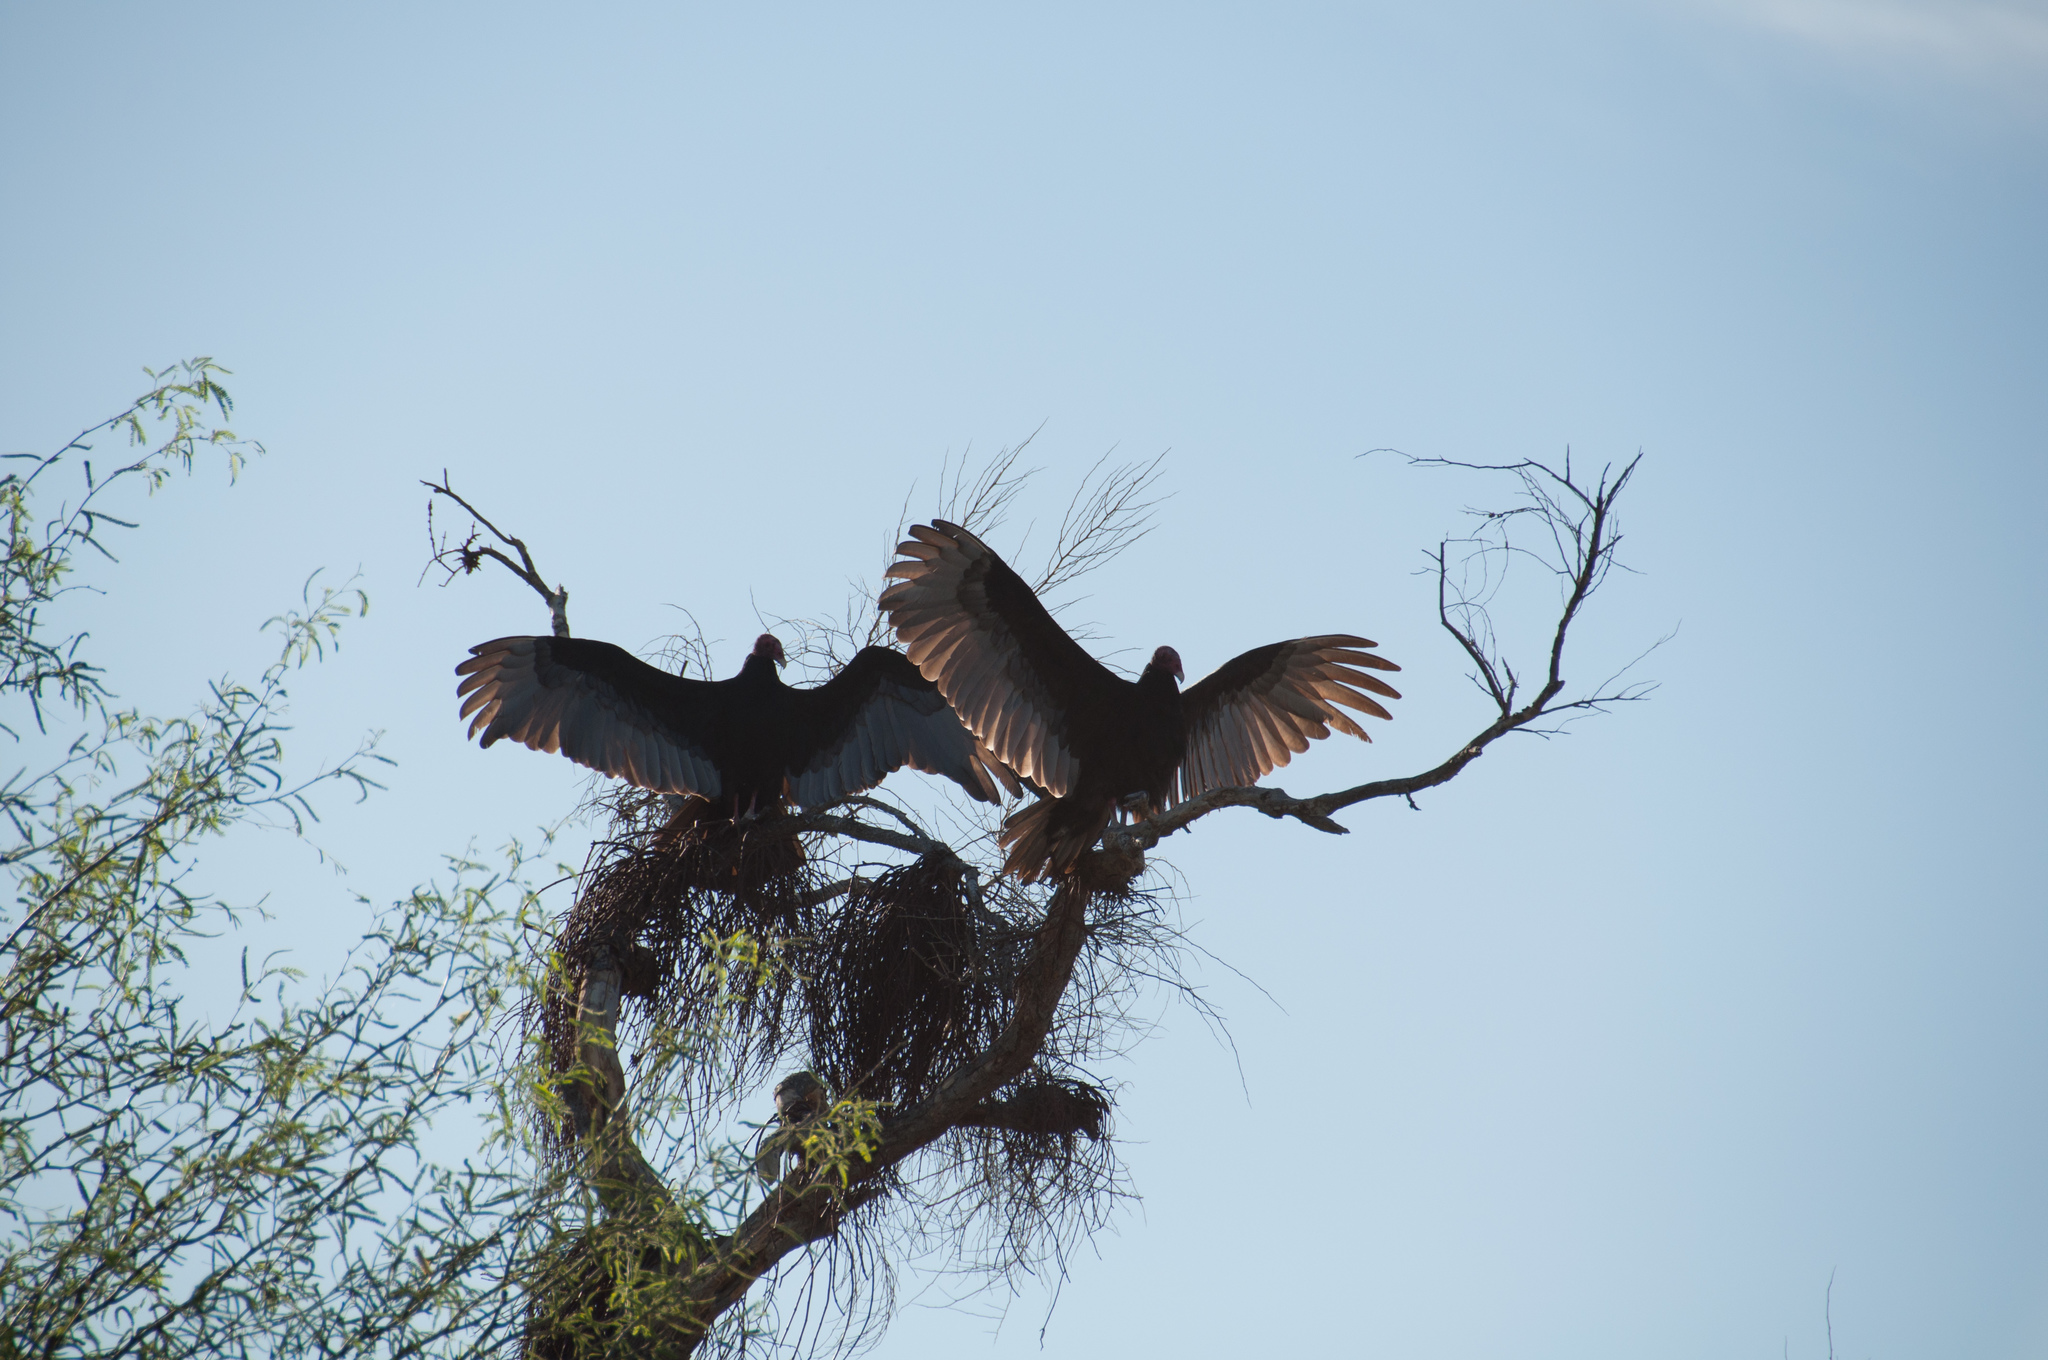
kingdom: Animalia
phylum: Chordata
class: Aves
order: Accipitriformes
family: Cathartidae
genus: Cathartes
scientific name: Cathartes aura
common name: Turkey vulture
